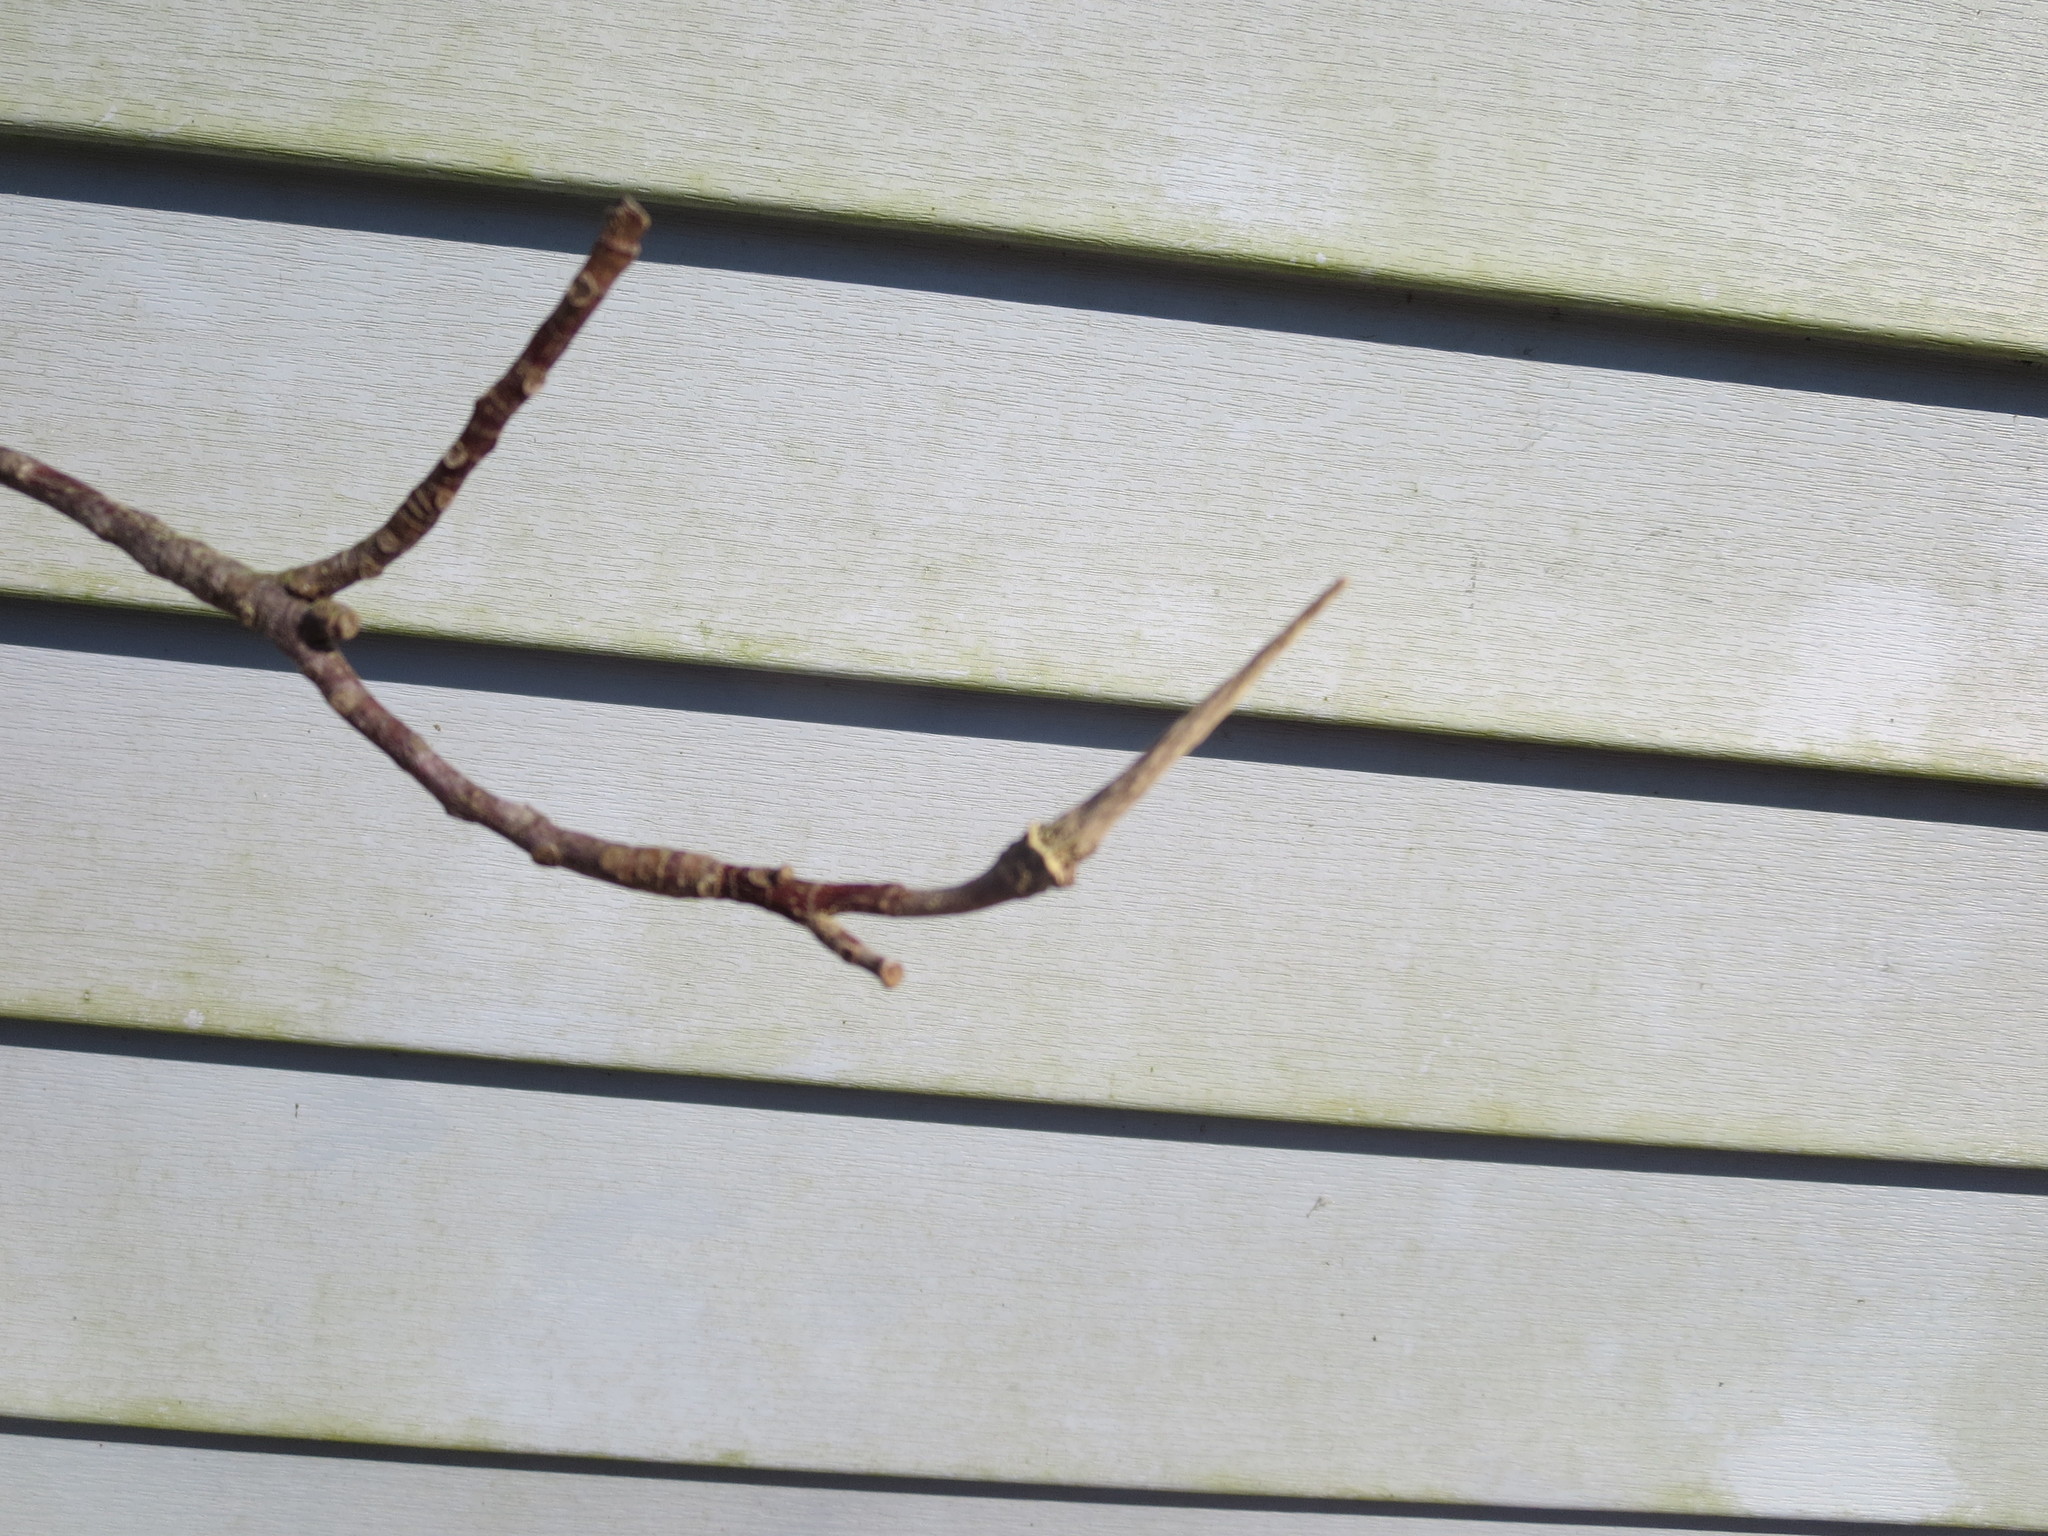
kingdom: Plantae
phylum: Tracheophyta
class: Magnoliopsida
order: Magnoliales
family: Magnoliaceae
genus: Liriodendron
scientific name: Liriodendron tulipifera
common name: Tulip tree
